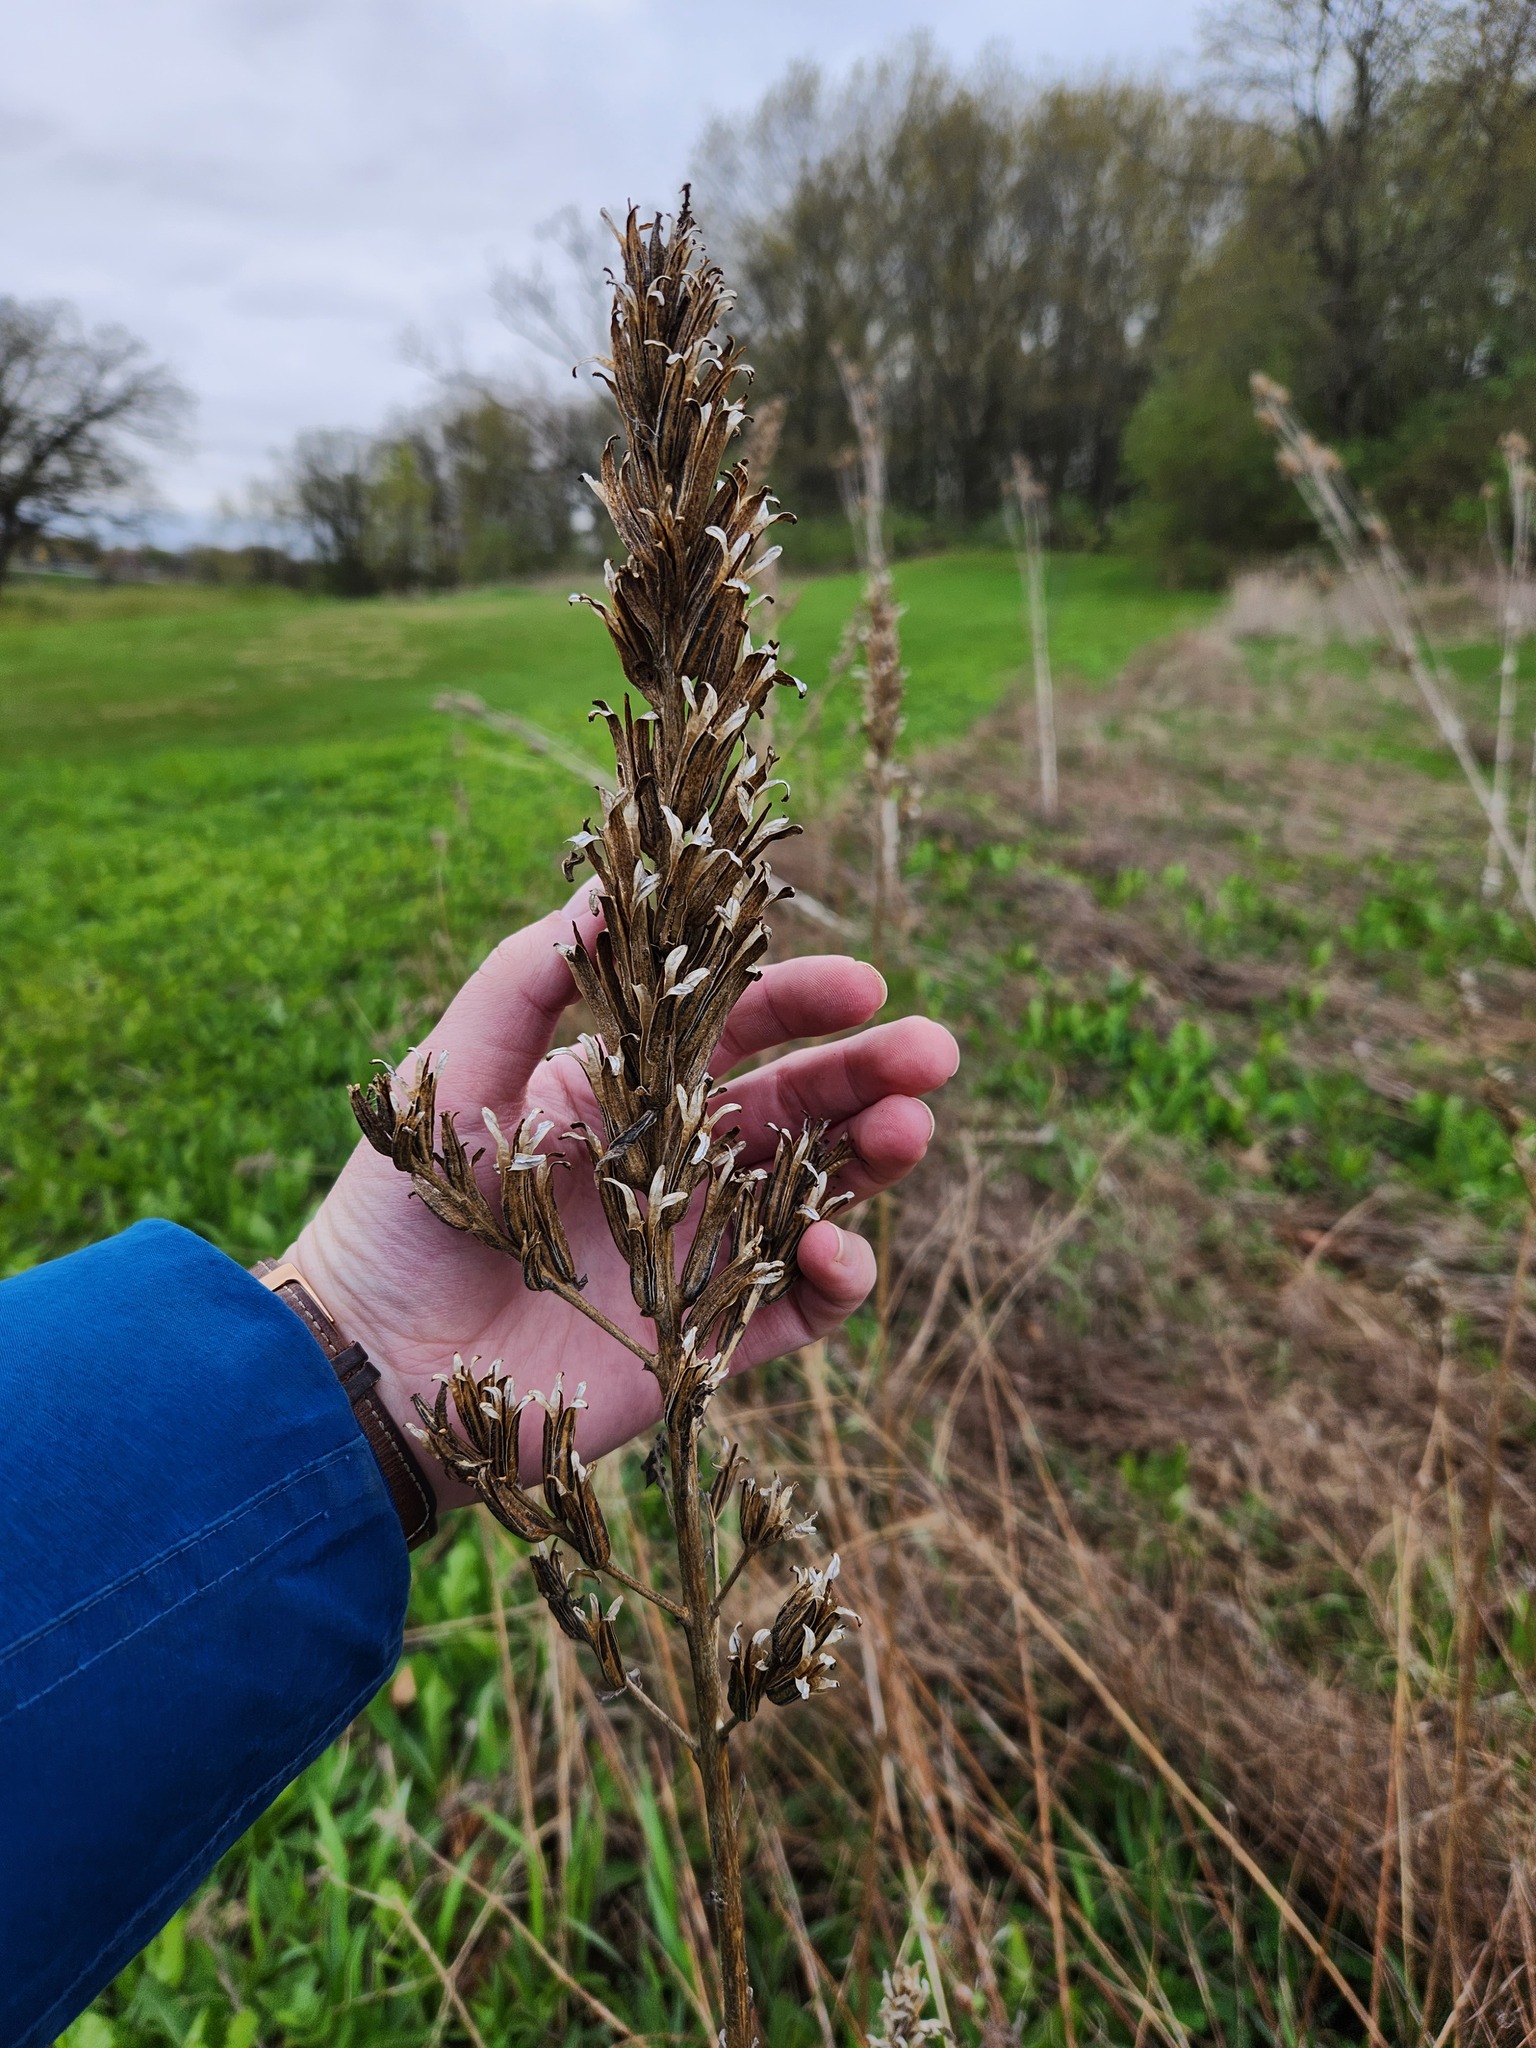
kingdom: Plantae
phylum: Tracheophyta
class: Magnoliopsida
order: Myrtales
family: Onagraceae
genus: Oenothera
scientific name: Oenothera
